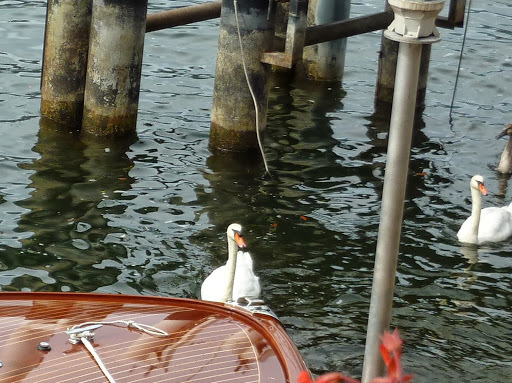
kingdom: Animalia
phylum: Chordata
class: Aves
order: Anseriformes
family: Anatidae
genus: Cygnus
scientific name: Cygnus olor
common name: Mute swan
